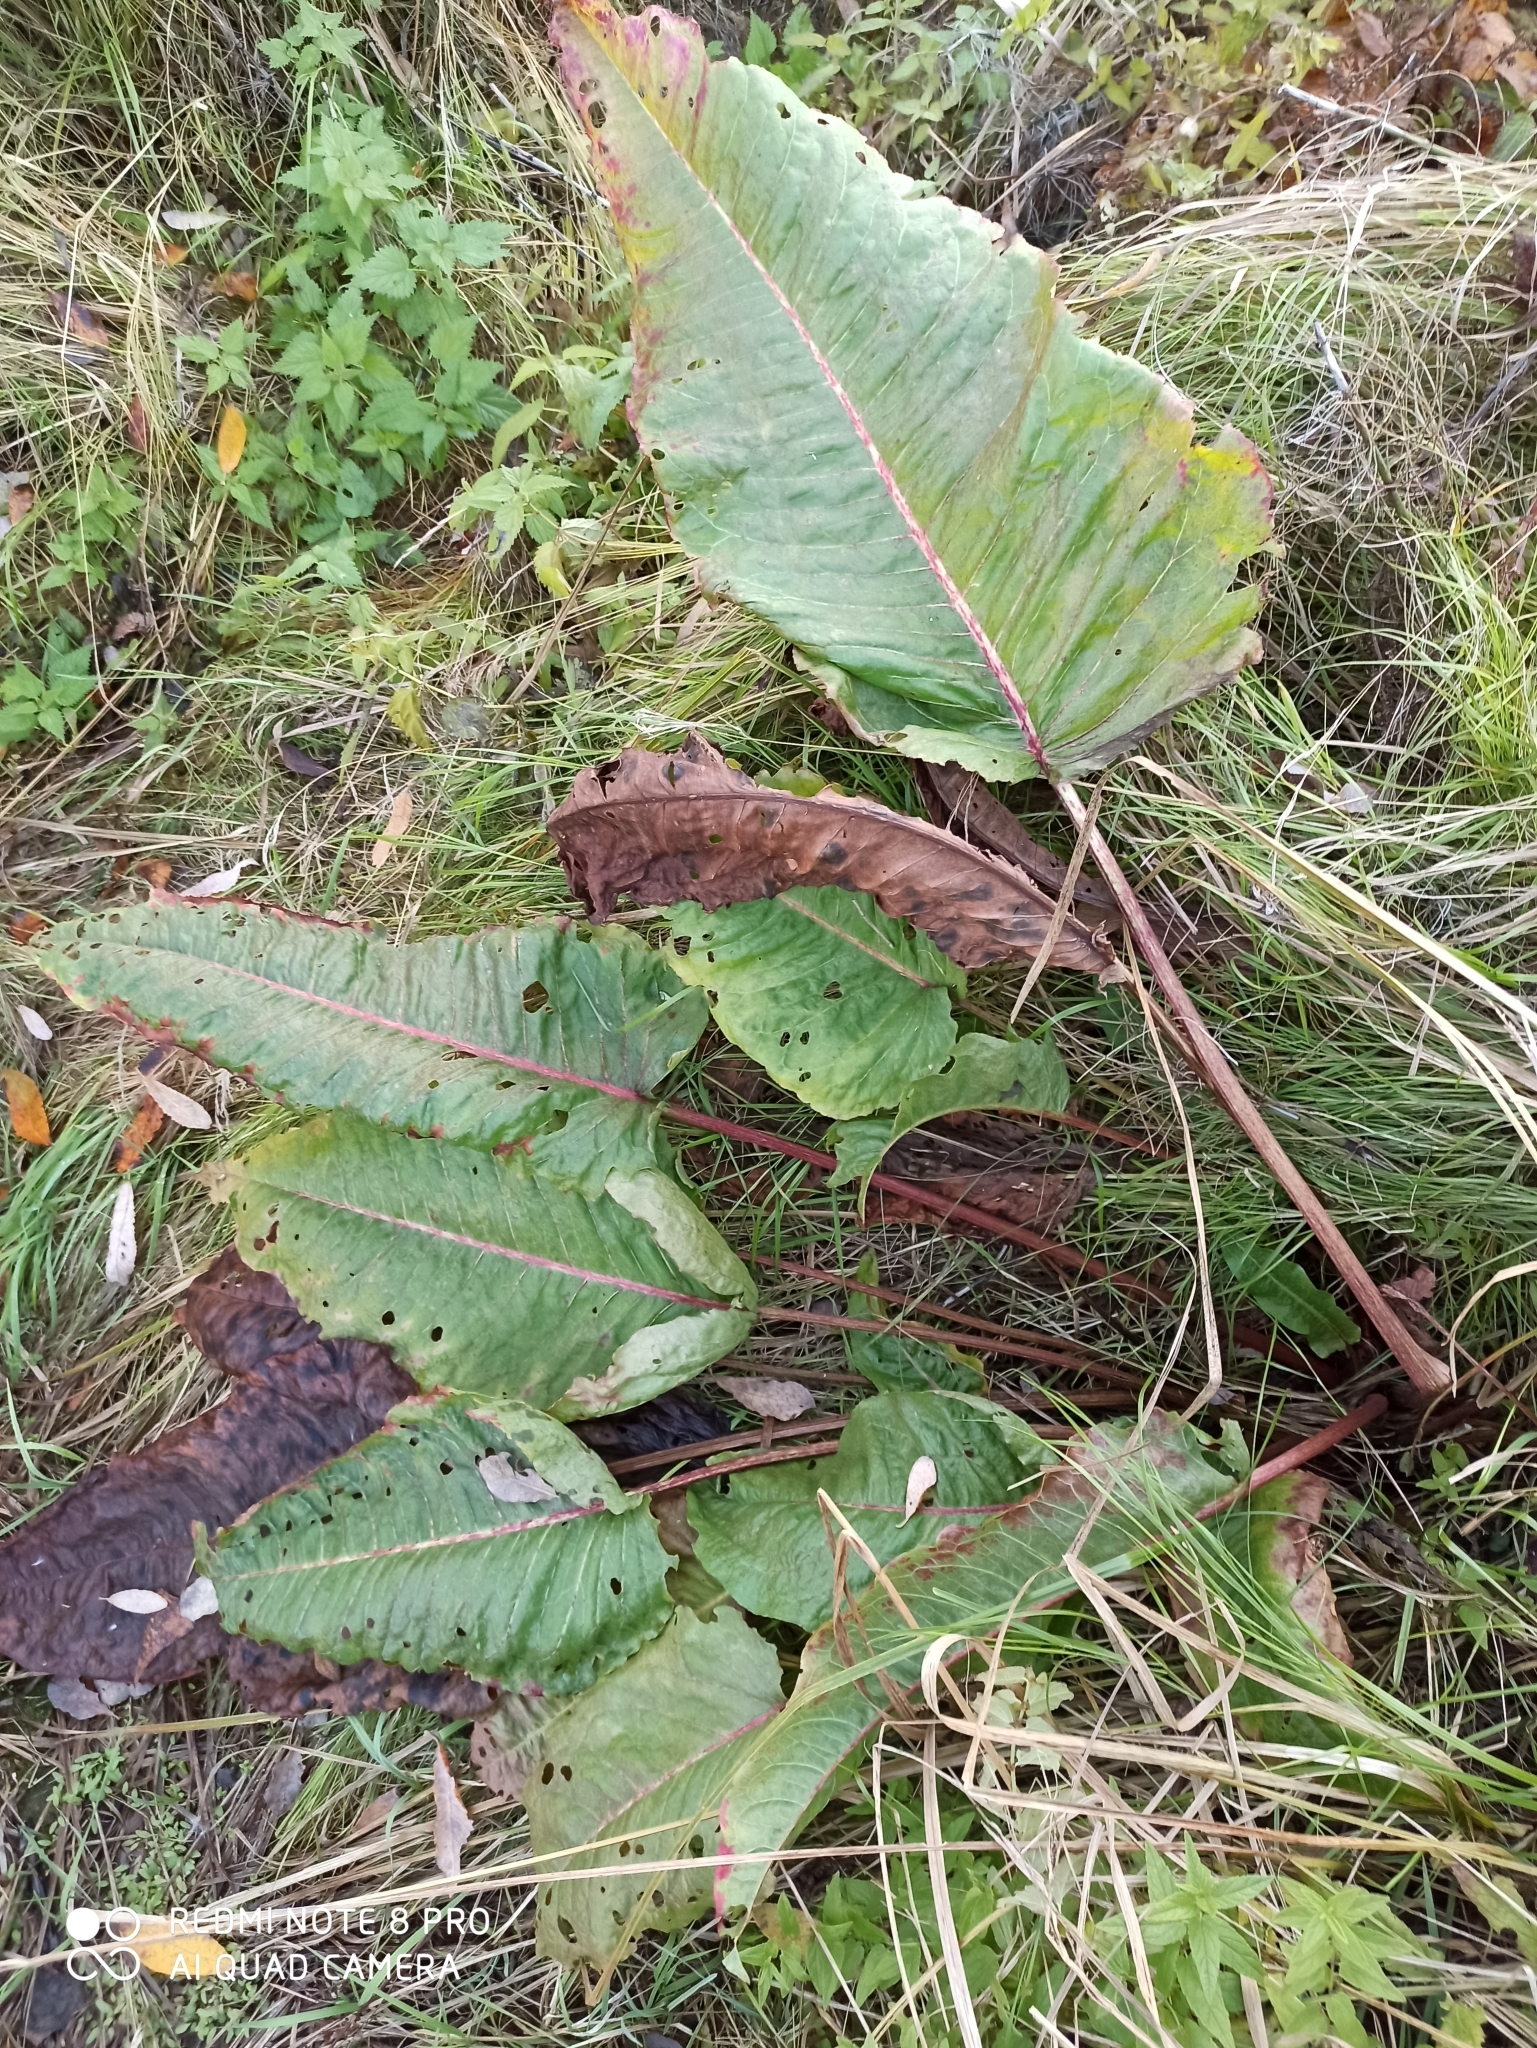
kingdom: Plantae
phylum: Tracheophyta
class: Magnoliopsida
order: Caryophyllales
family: Polygonaceae
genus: Rumex
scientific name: Rumex aquaticus
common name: Scottish dock
